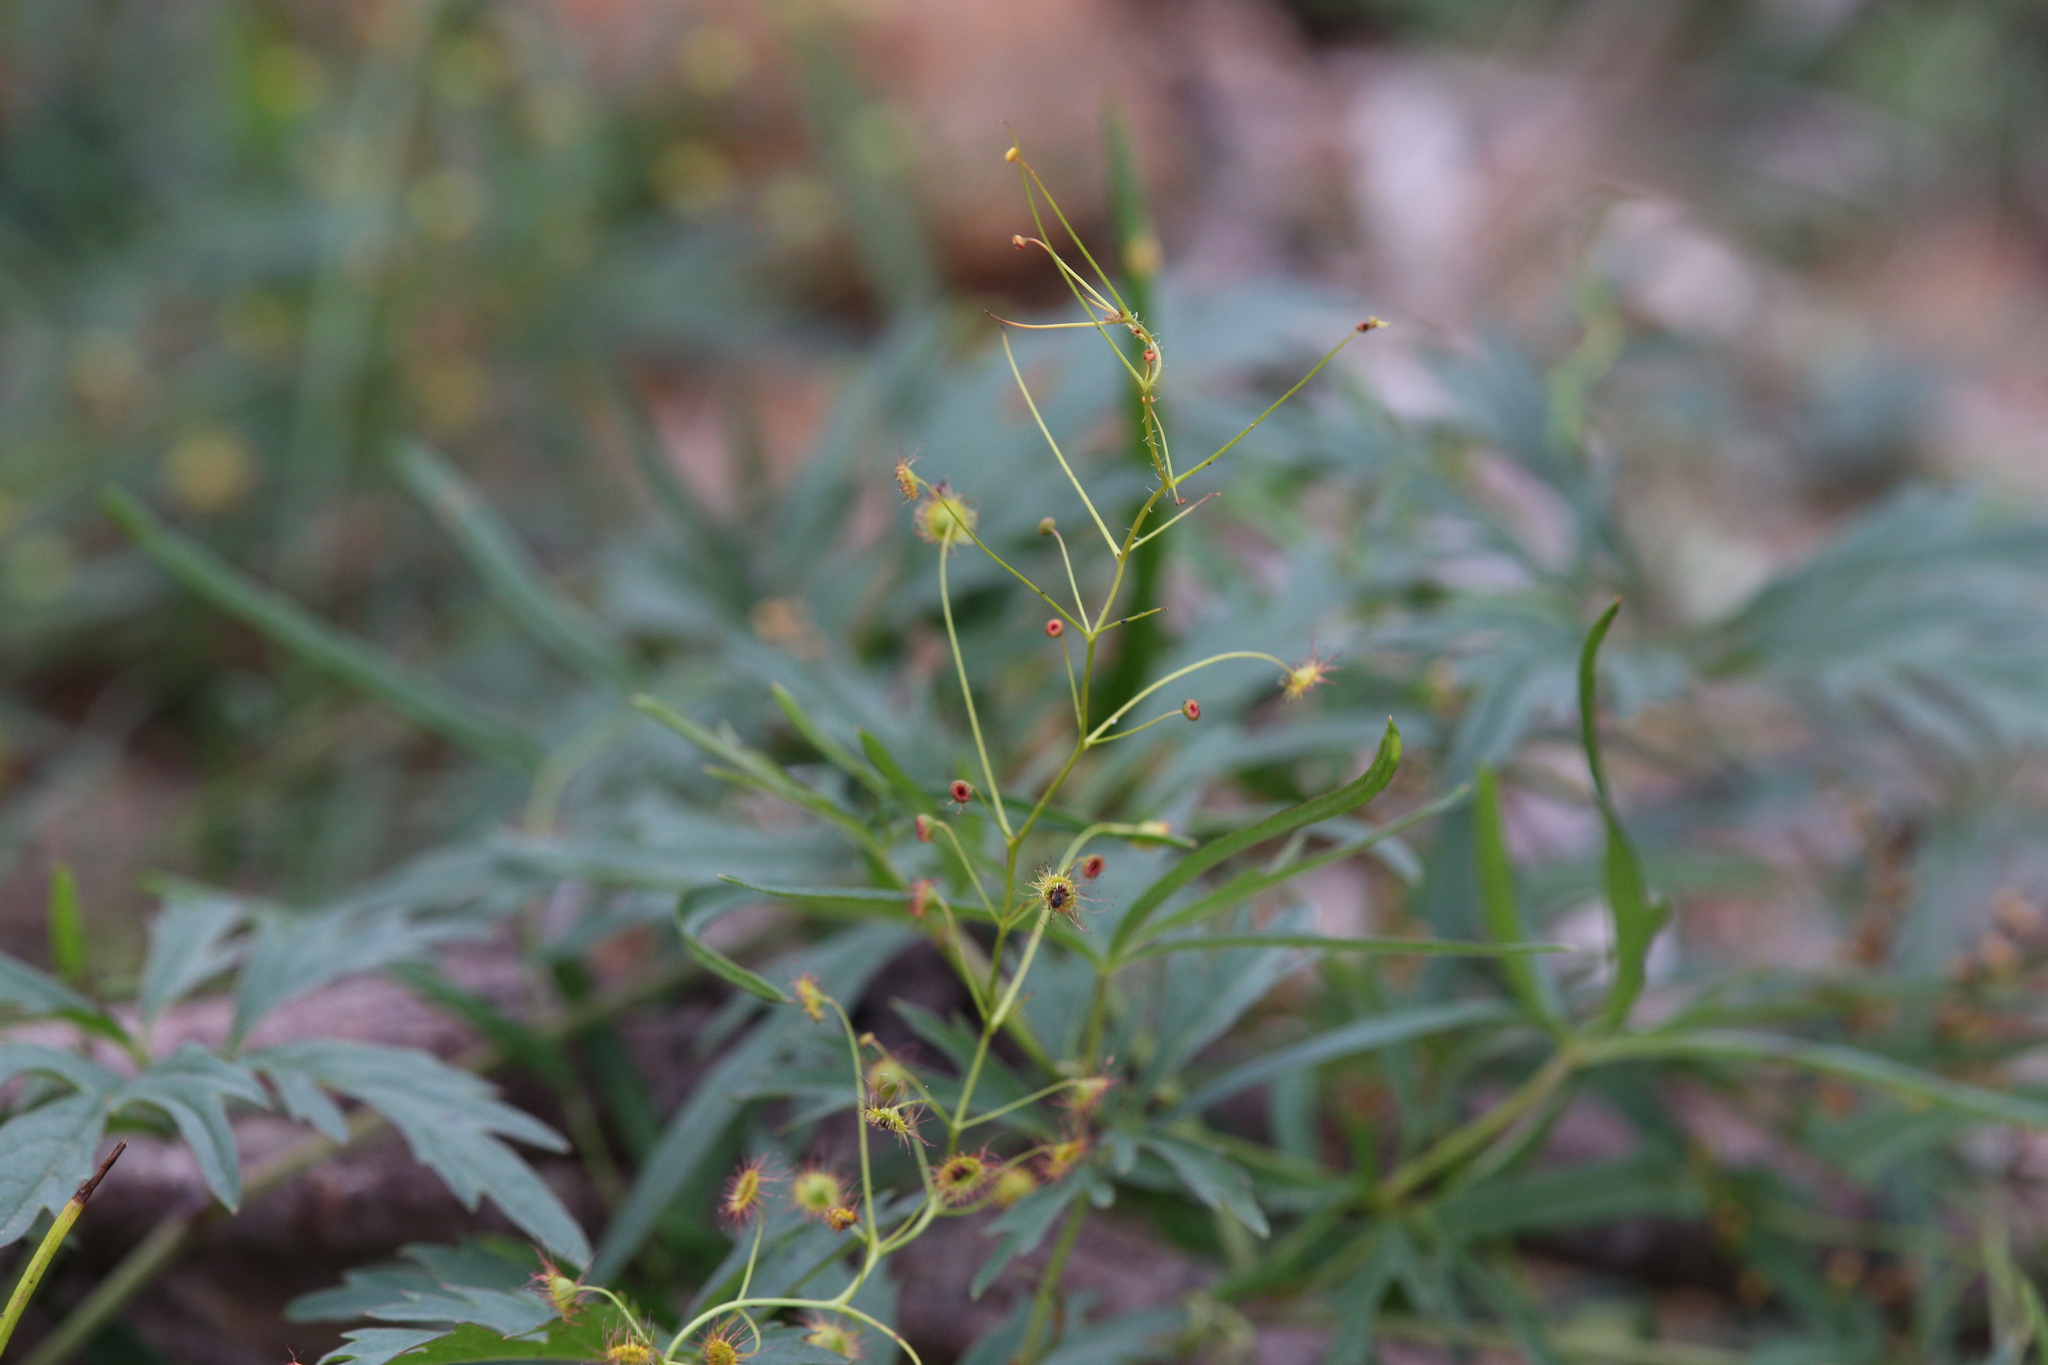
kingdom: Plantae
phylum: Tracheophyta
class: Magnoliopsida
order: Caryophyllales
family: Droseraceae
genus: Drosera
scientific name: Drosera hirsuta
